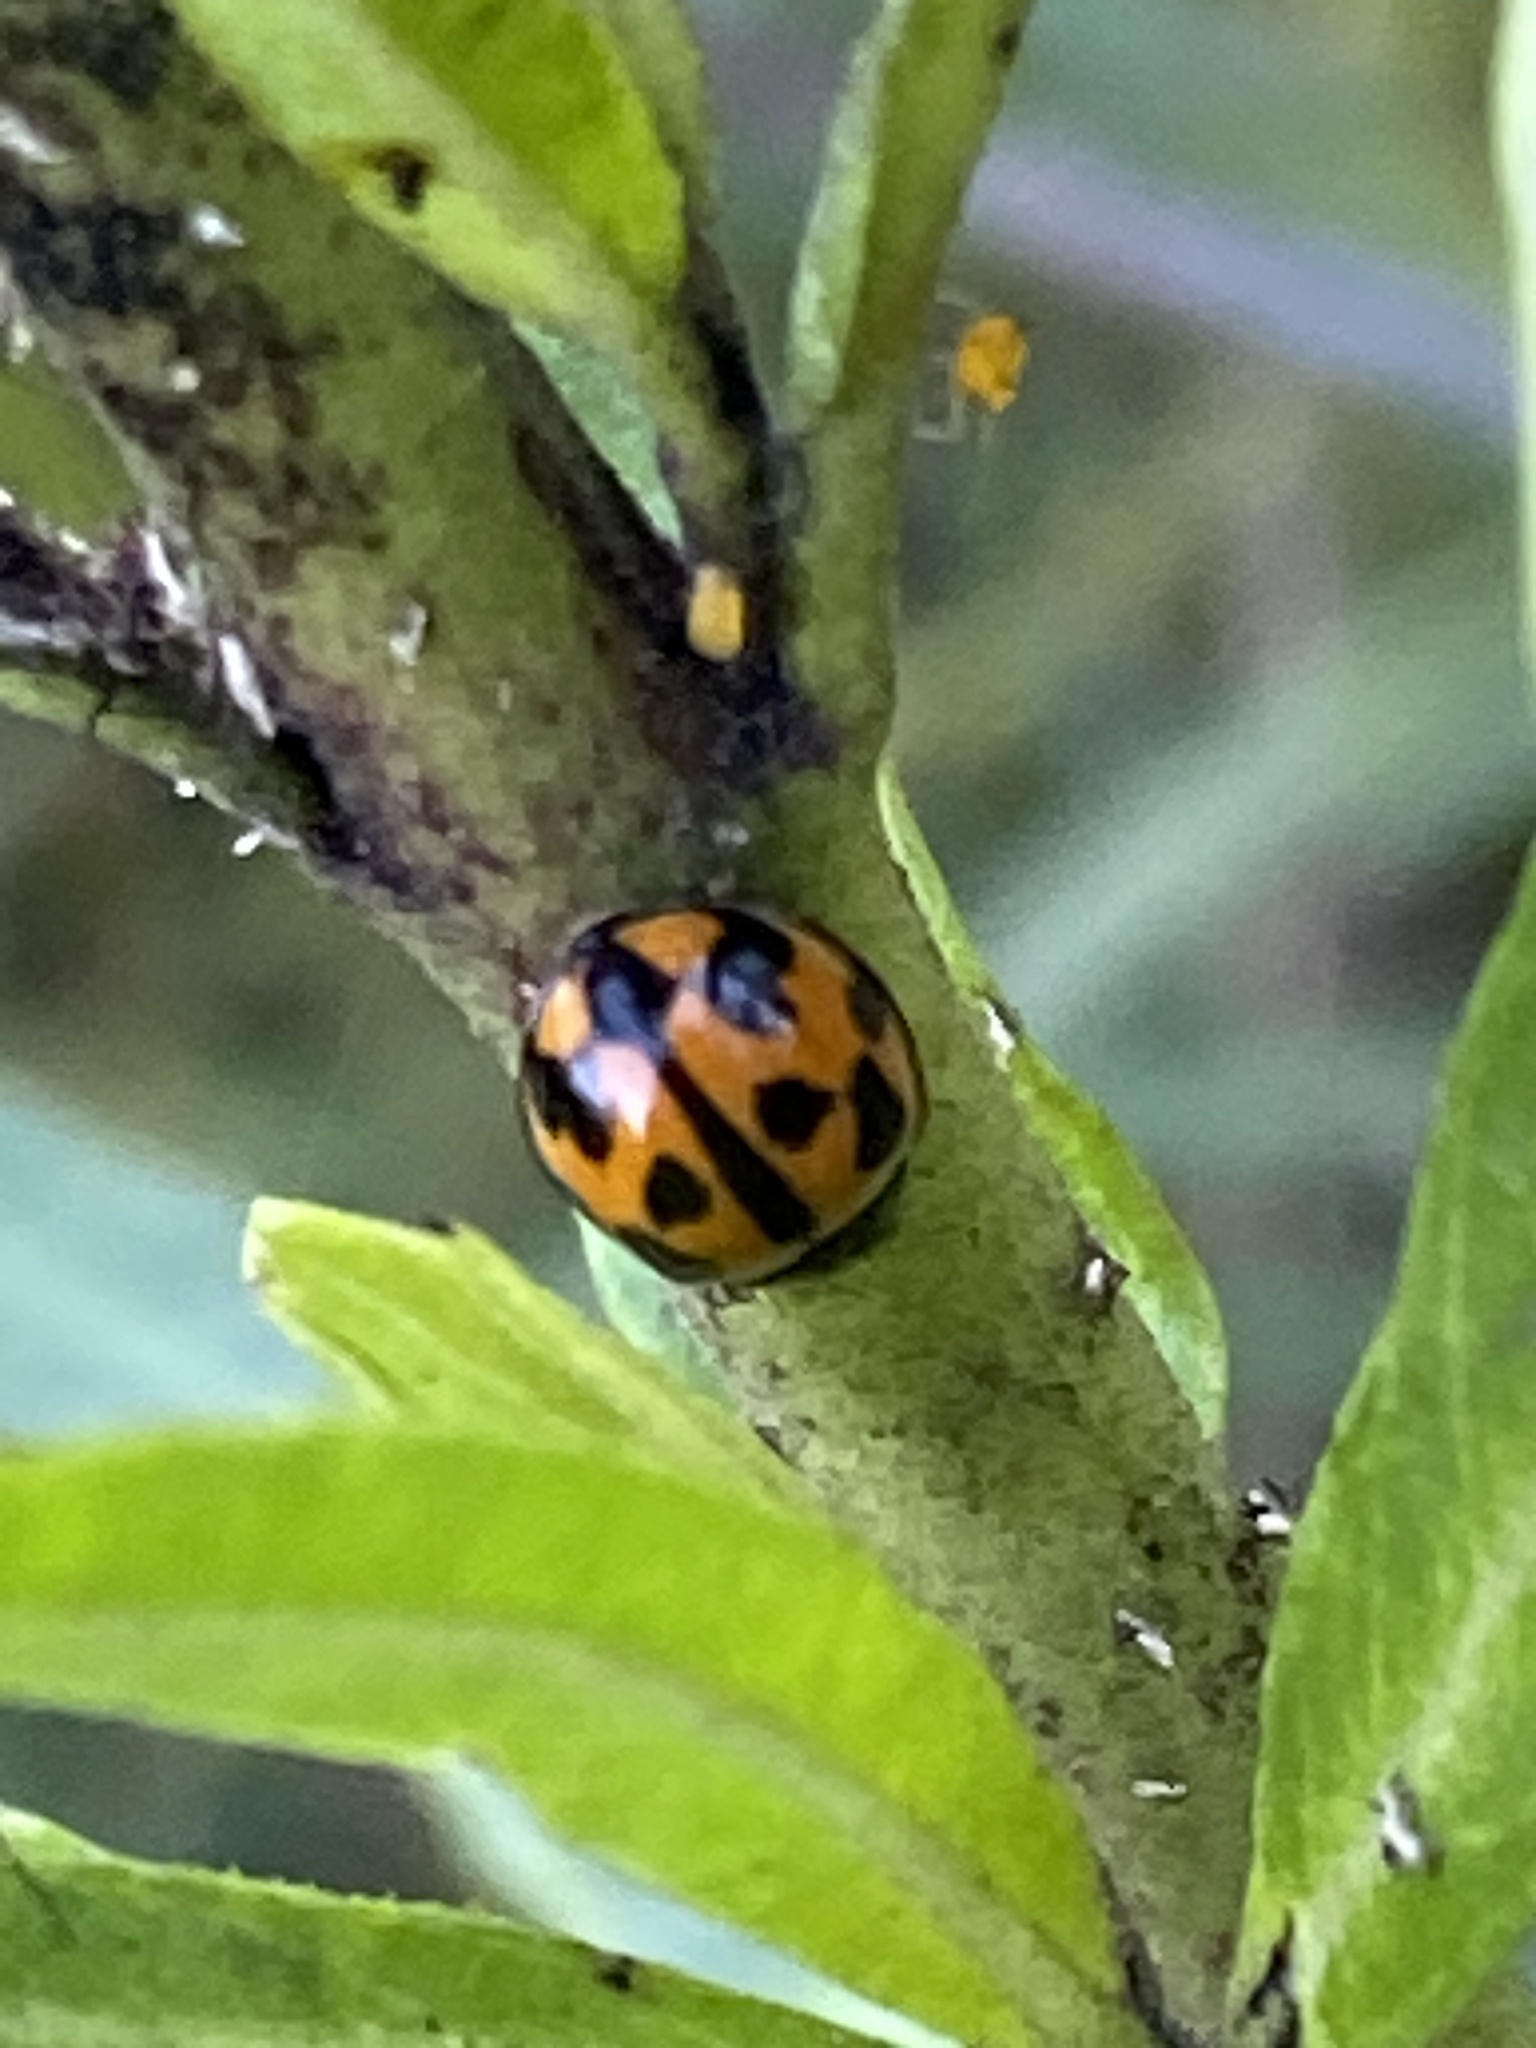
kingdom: Animalia
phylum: Arthropoda
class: Insecta
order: Coleoptera
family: Coccinellidae
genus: Coelophora
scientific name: Coelophora inaequalis
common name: Common australian lady beetle
